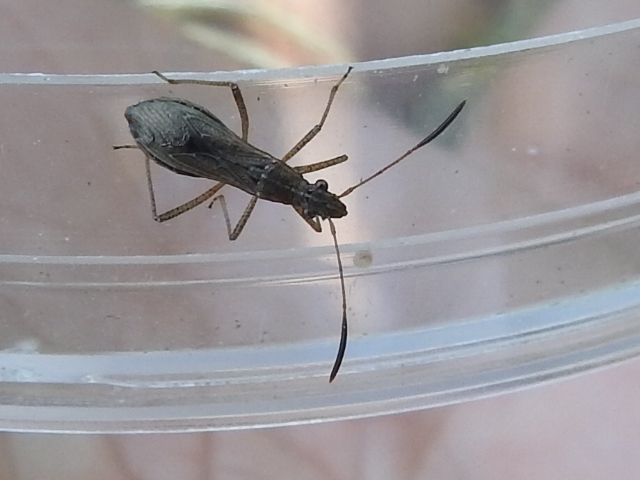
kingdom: Animalia
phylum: Arthropoda
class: Insecta
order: Hemiptera
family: Alydidae
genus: Esperanza
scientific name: Esperanza texana
